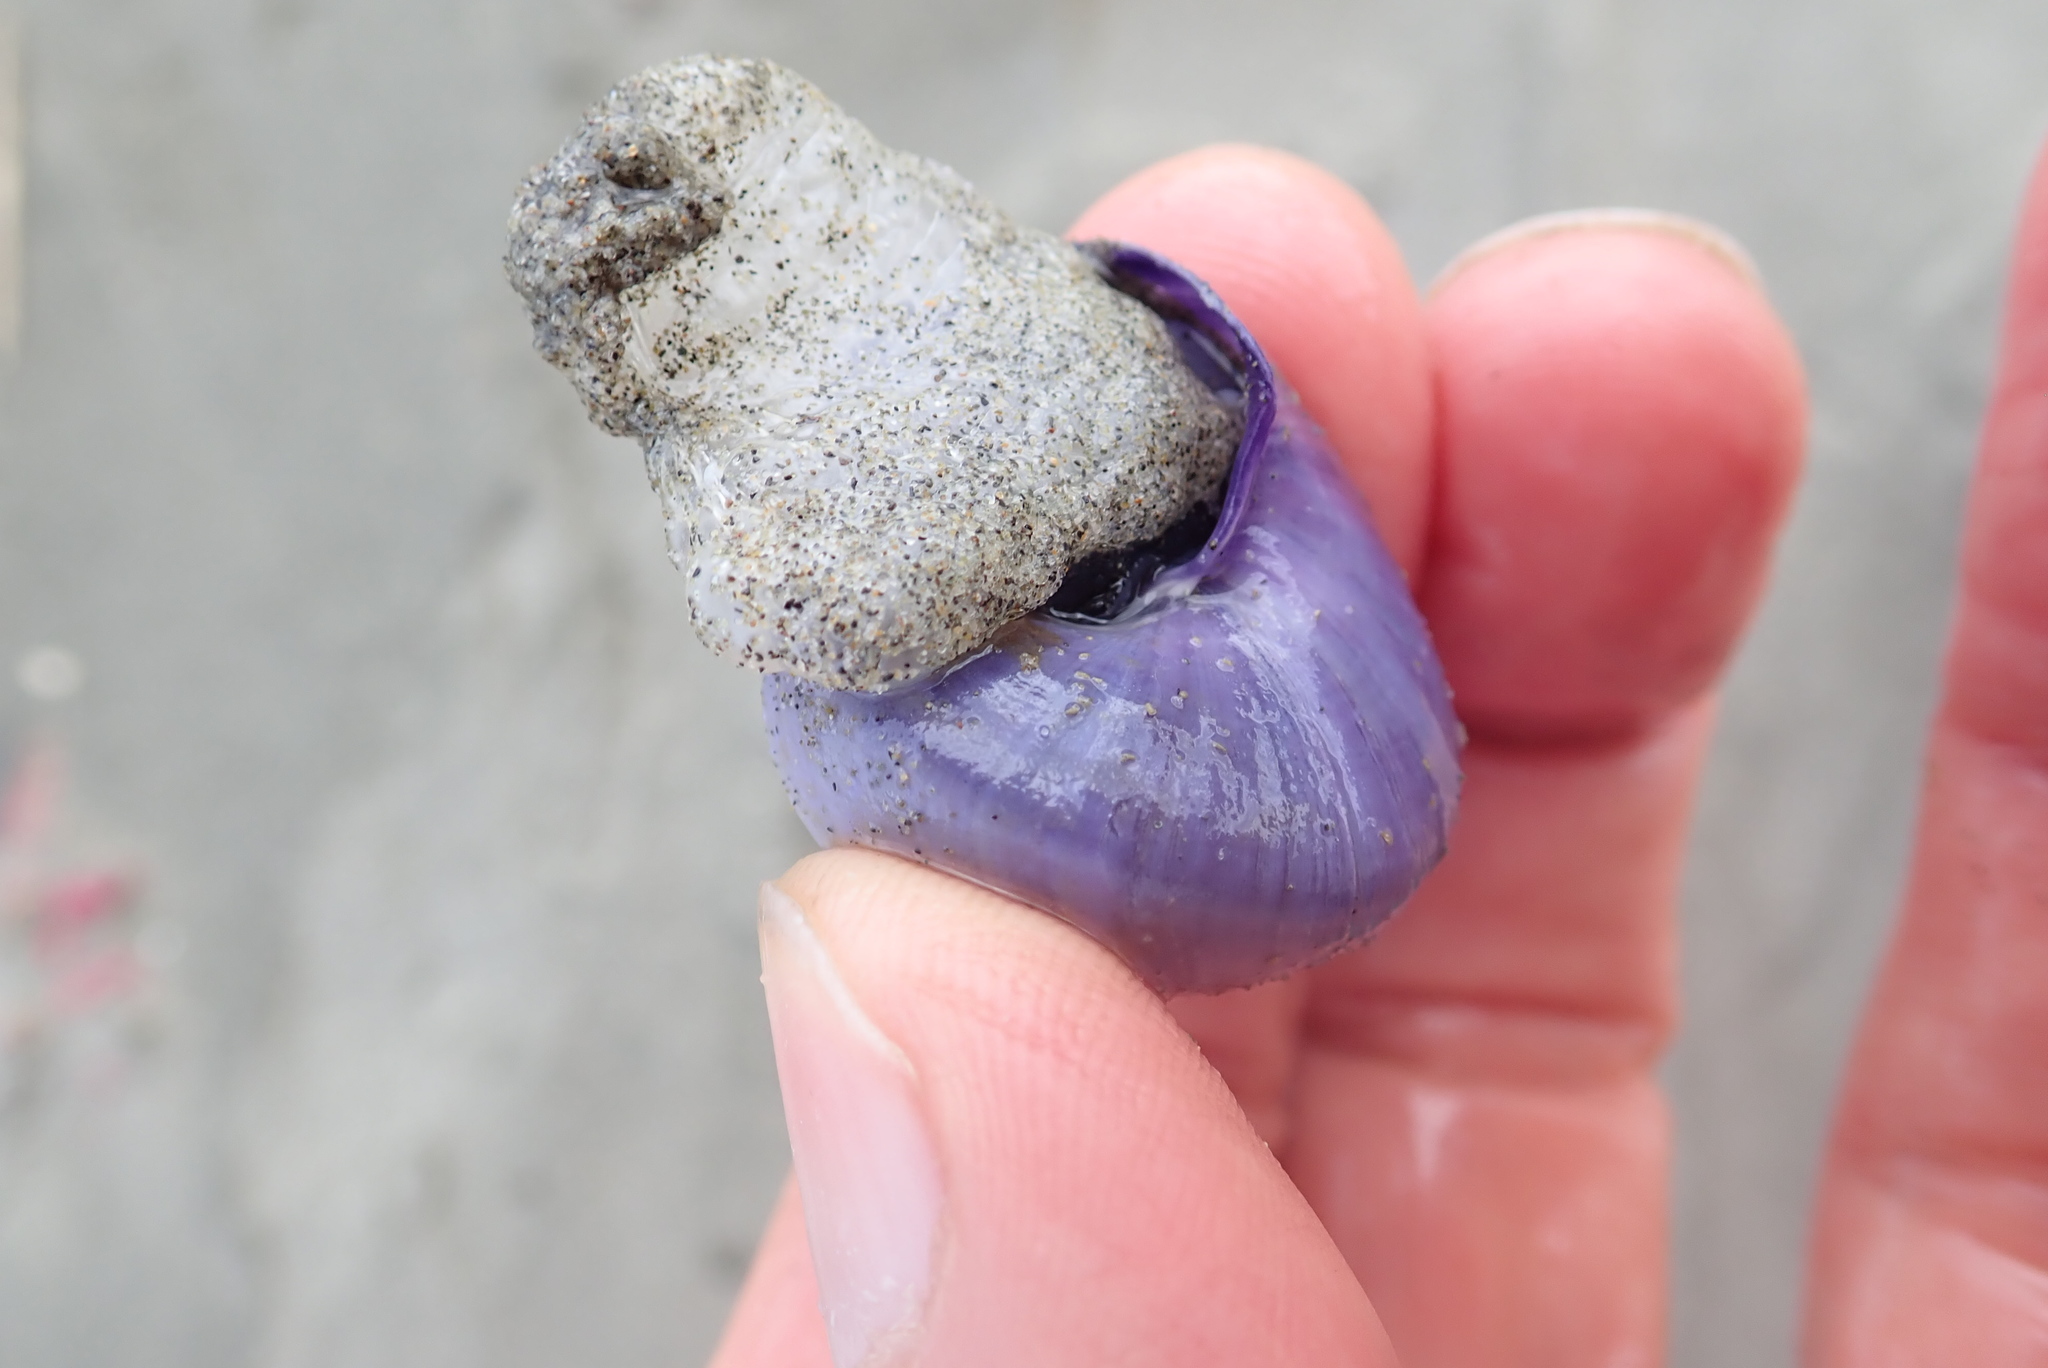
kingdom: Animalia
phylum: Mollusca
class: Gastropoda
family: Epitoniidae
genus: Janthina
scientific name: Janthina janthina
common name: Common janthina
